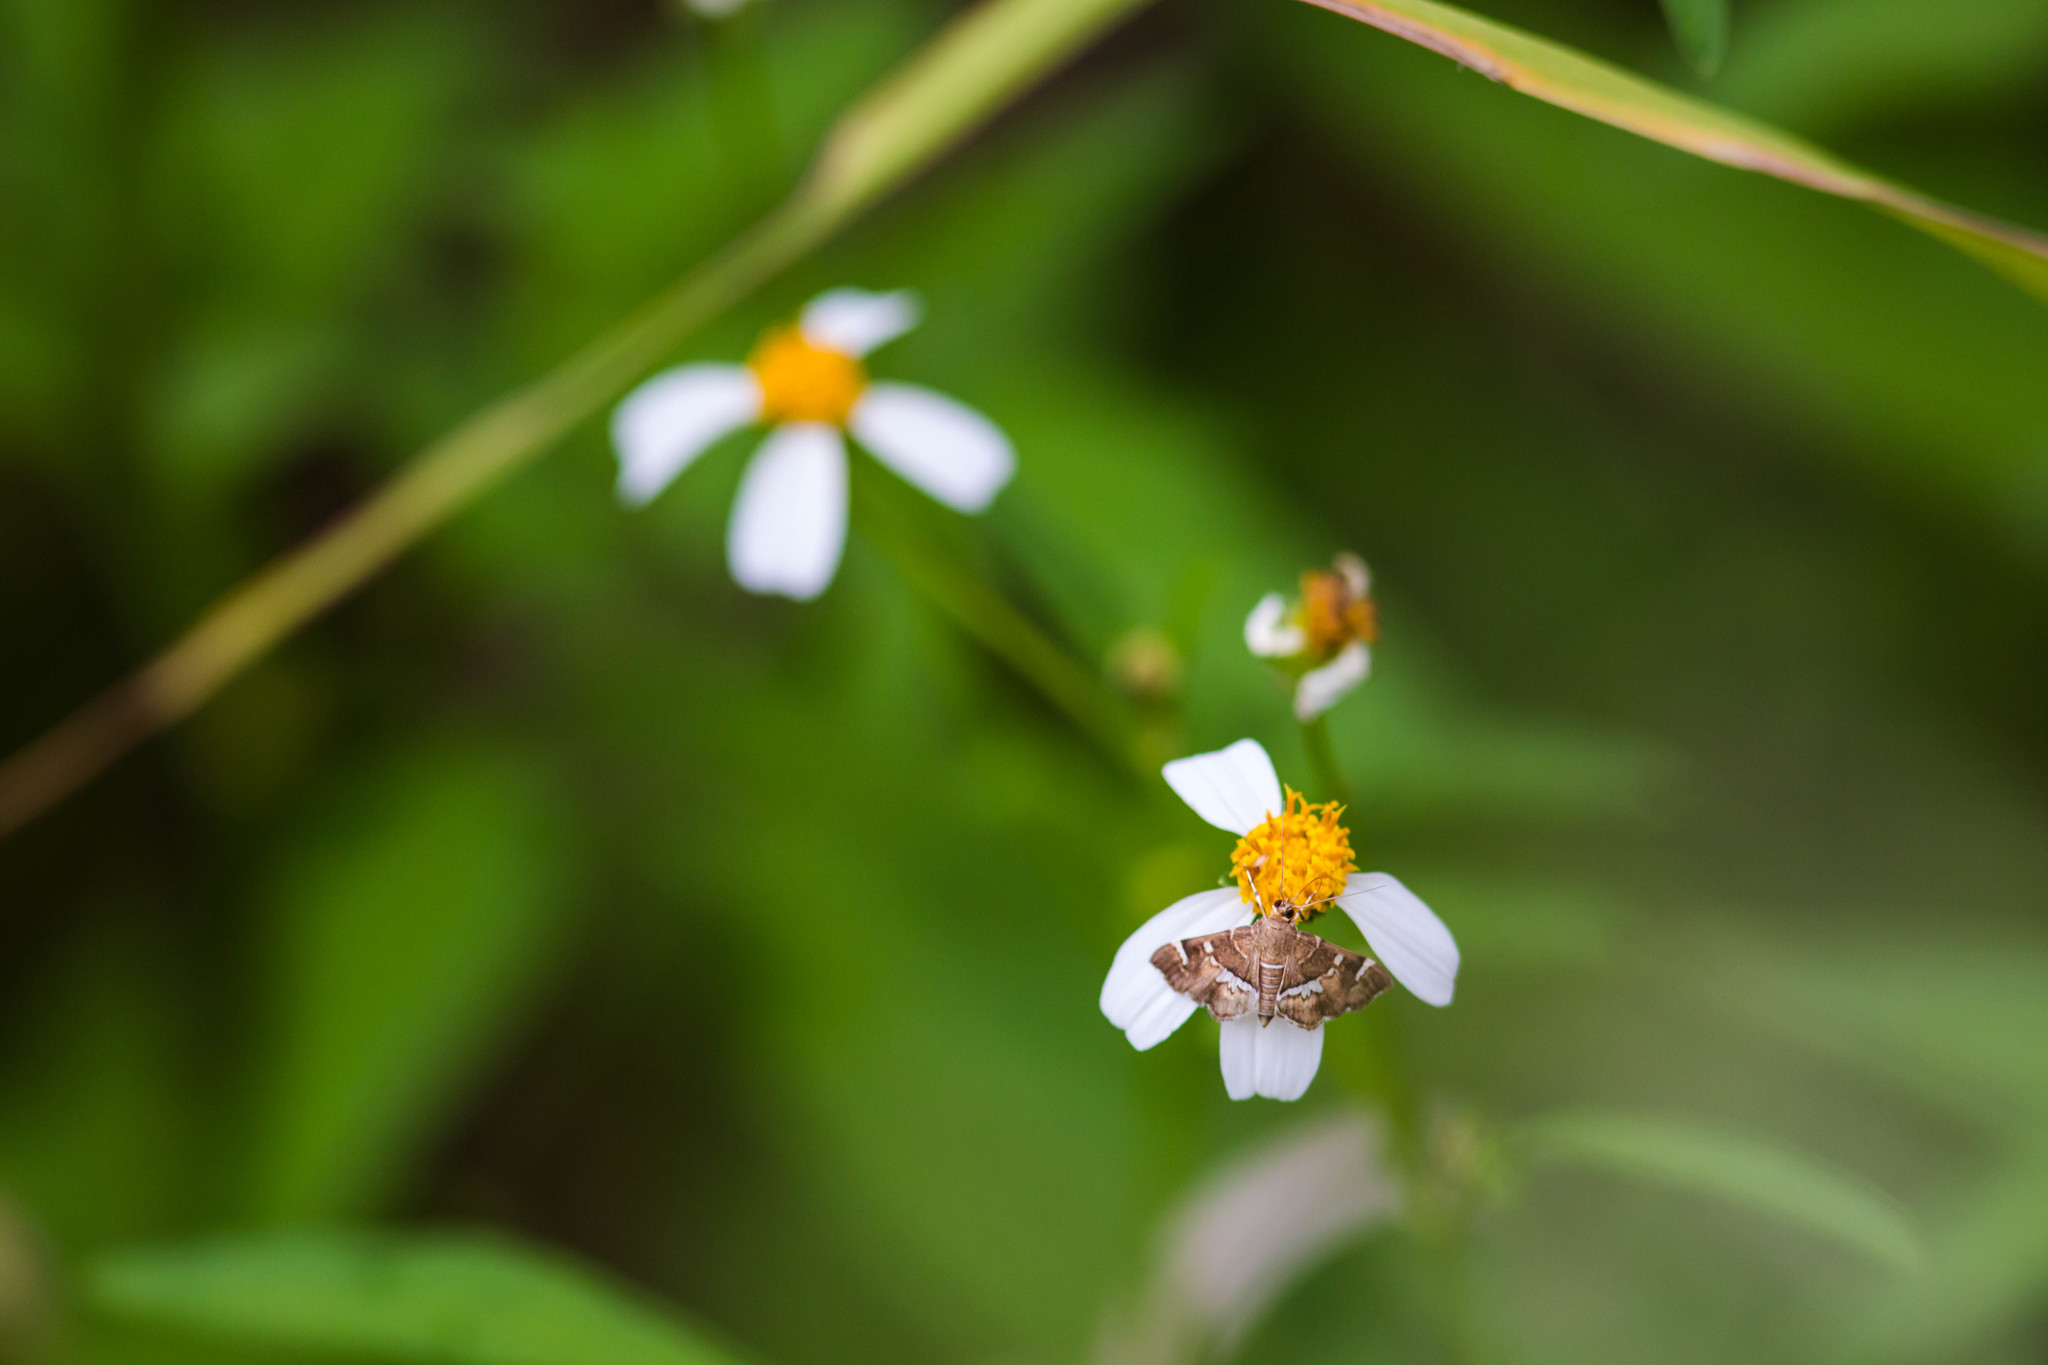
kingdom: Animalia
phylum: Arthropoda
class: Insecta
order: Lepidoptera
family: Crambidae
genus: Hymenia
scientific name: Hymenia perspectalis
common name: Spotted beet webworm
